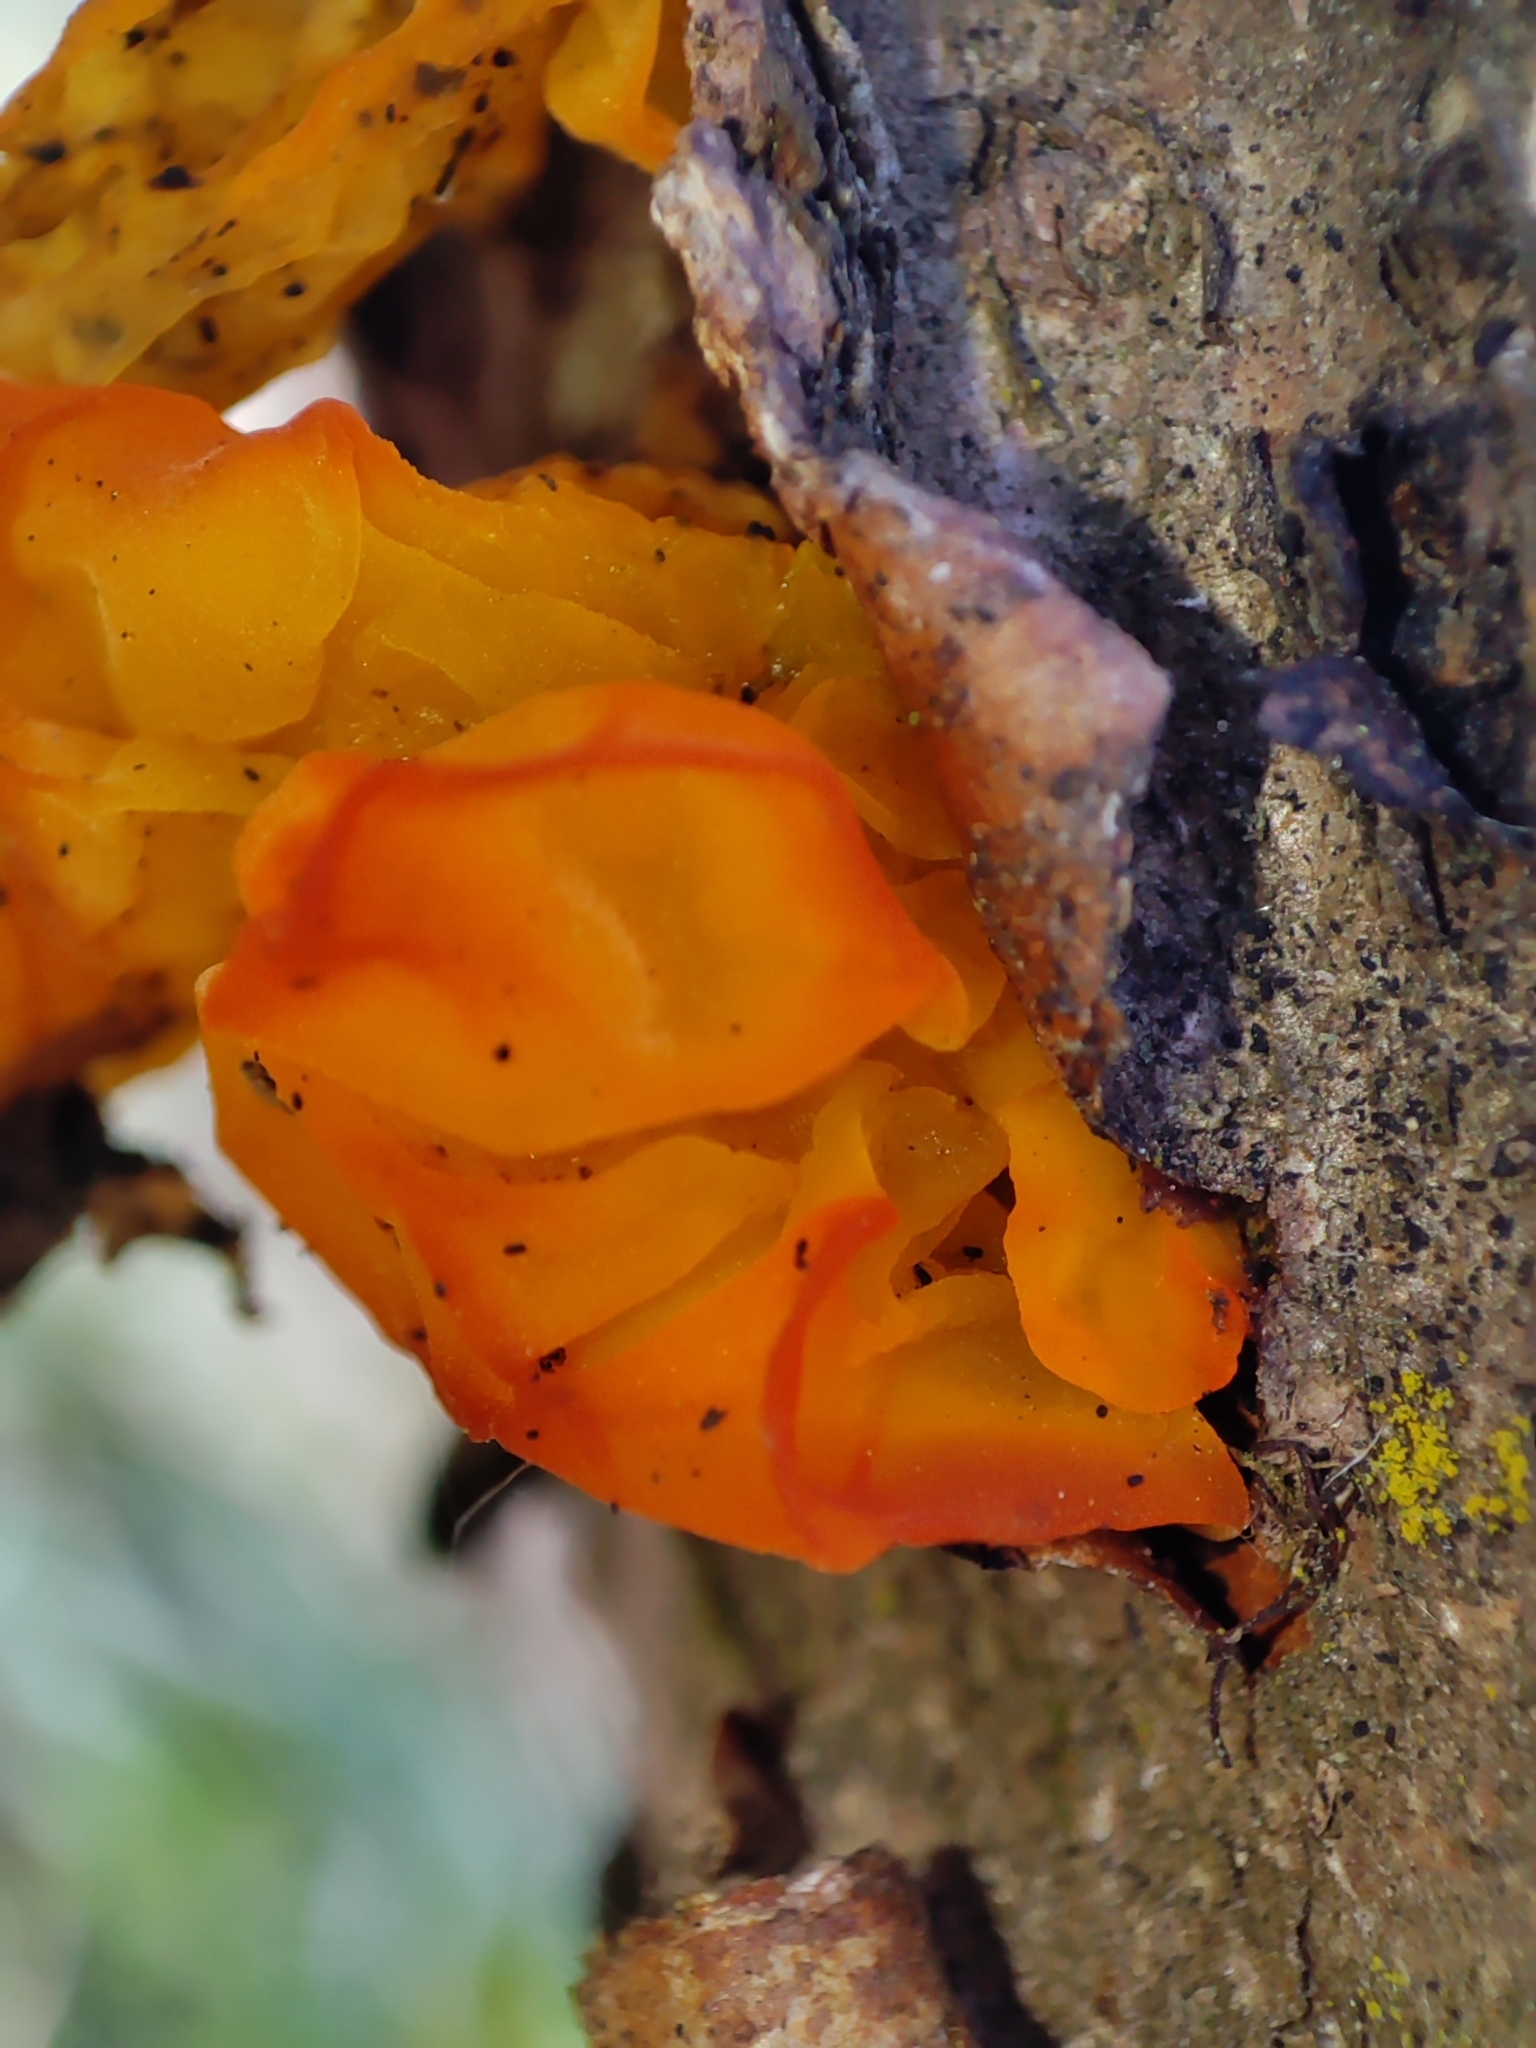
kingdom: Fungi
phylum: Basidiomycota
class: Tremellomycetes
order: Tremellales
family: Tremellaceae
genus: Tremella
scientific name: Tremella mesenterica
